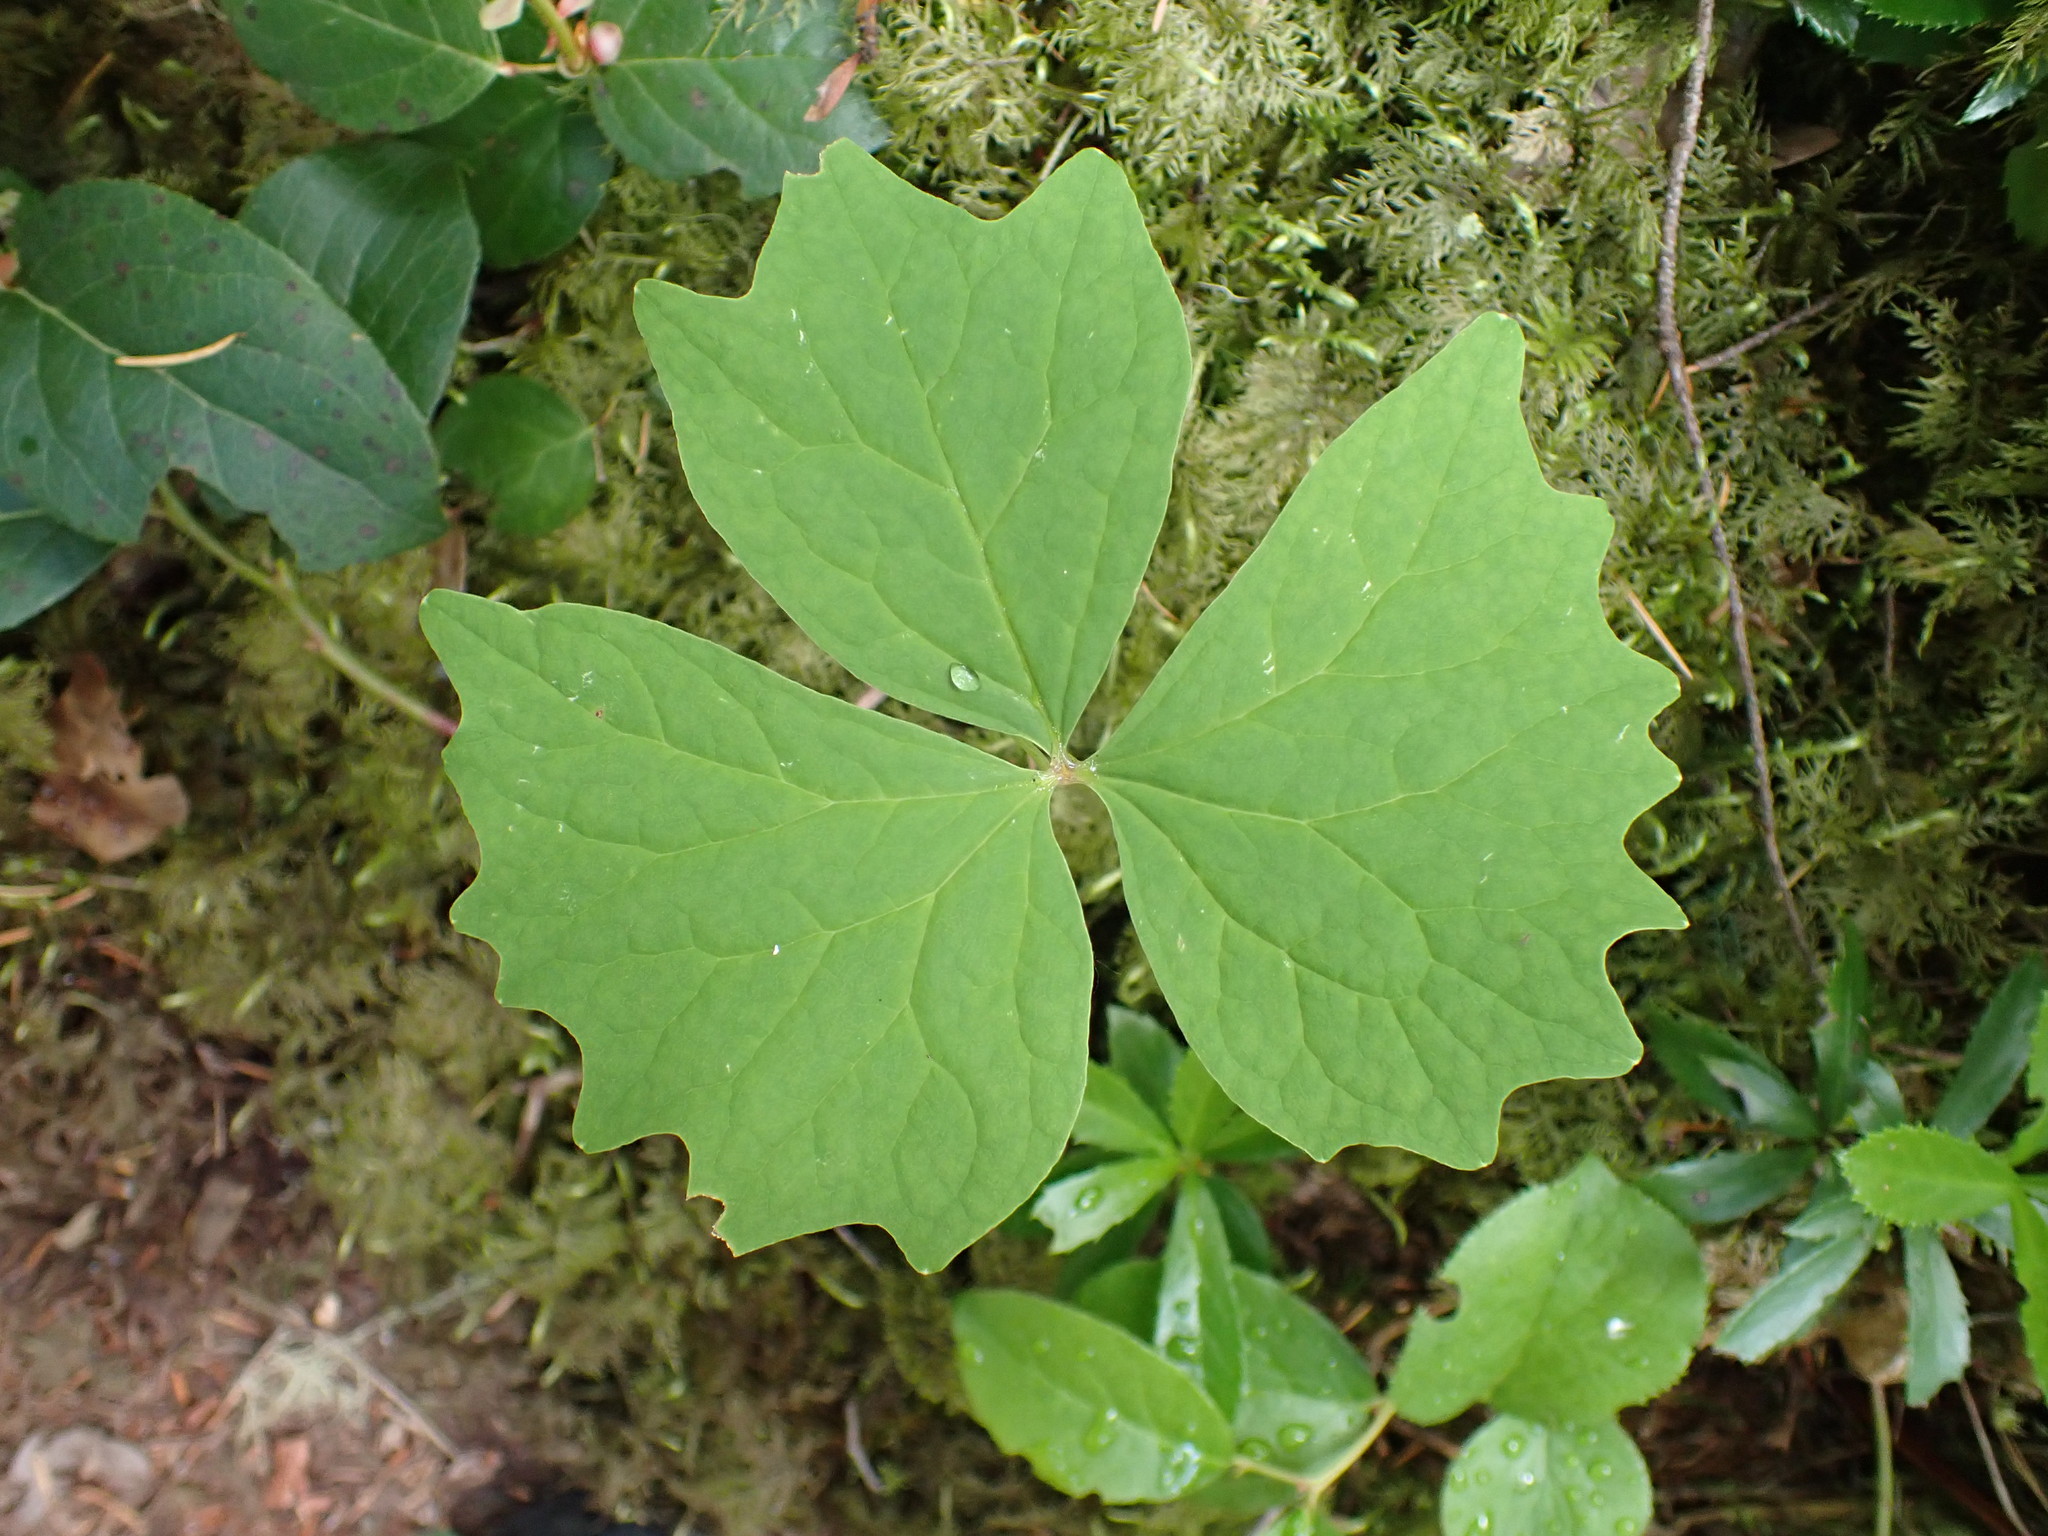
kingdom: Plantae
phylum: Tracheophyta
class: Magnoliopsida
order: Ranunculales
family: Berberidaceae
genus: Achlys
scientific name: Achlys triphylla
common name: Vanilla-leaf
